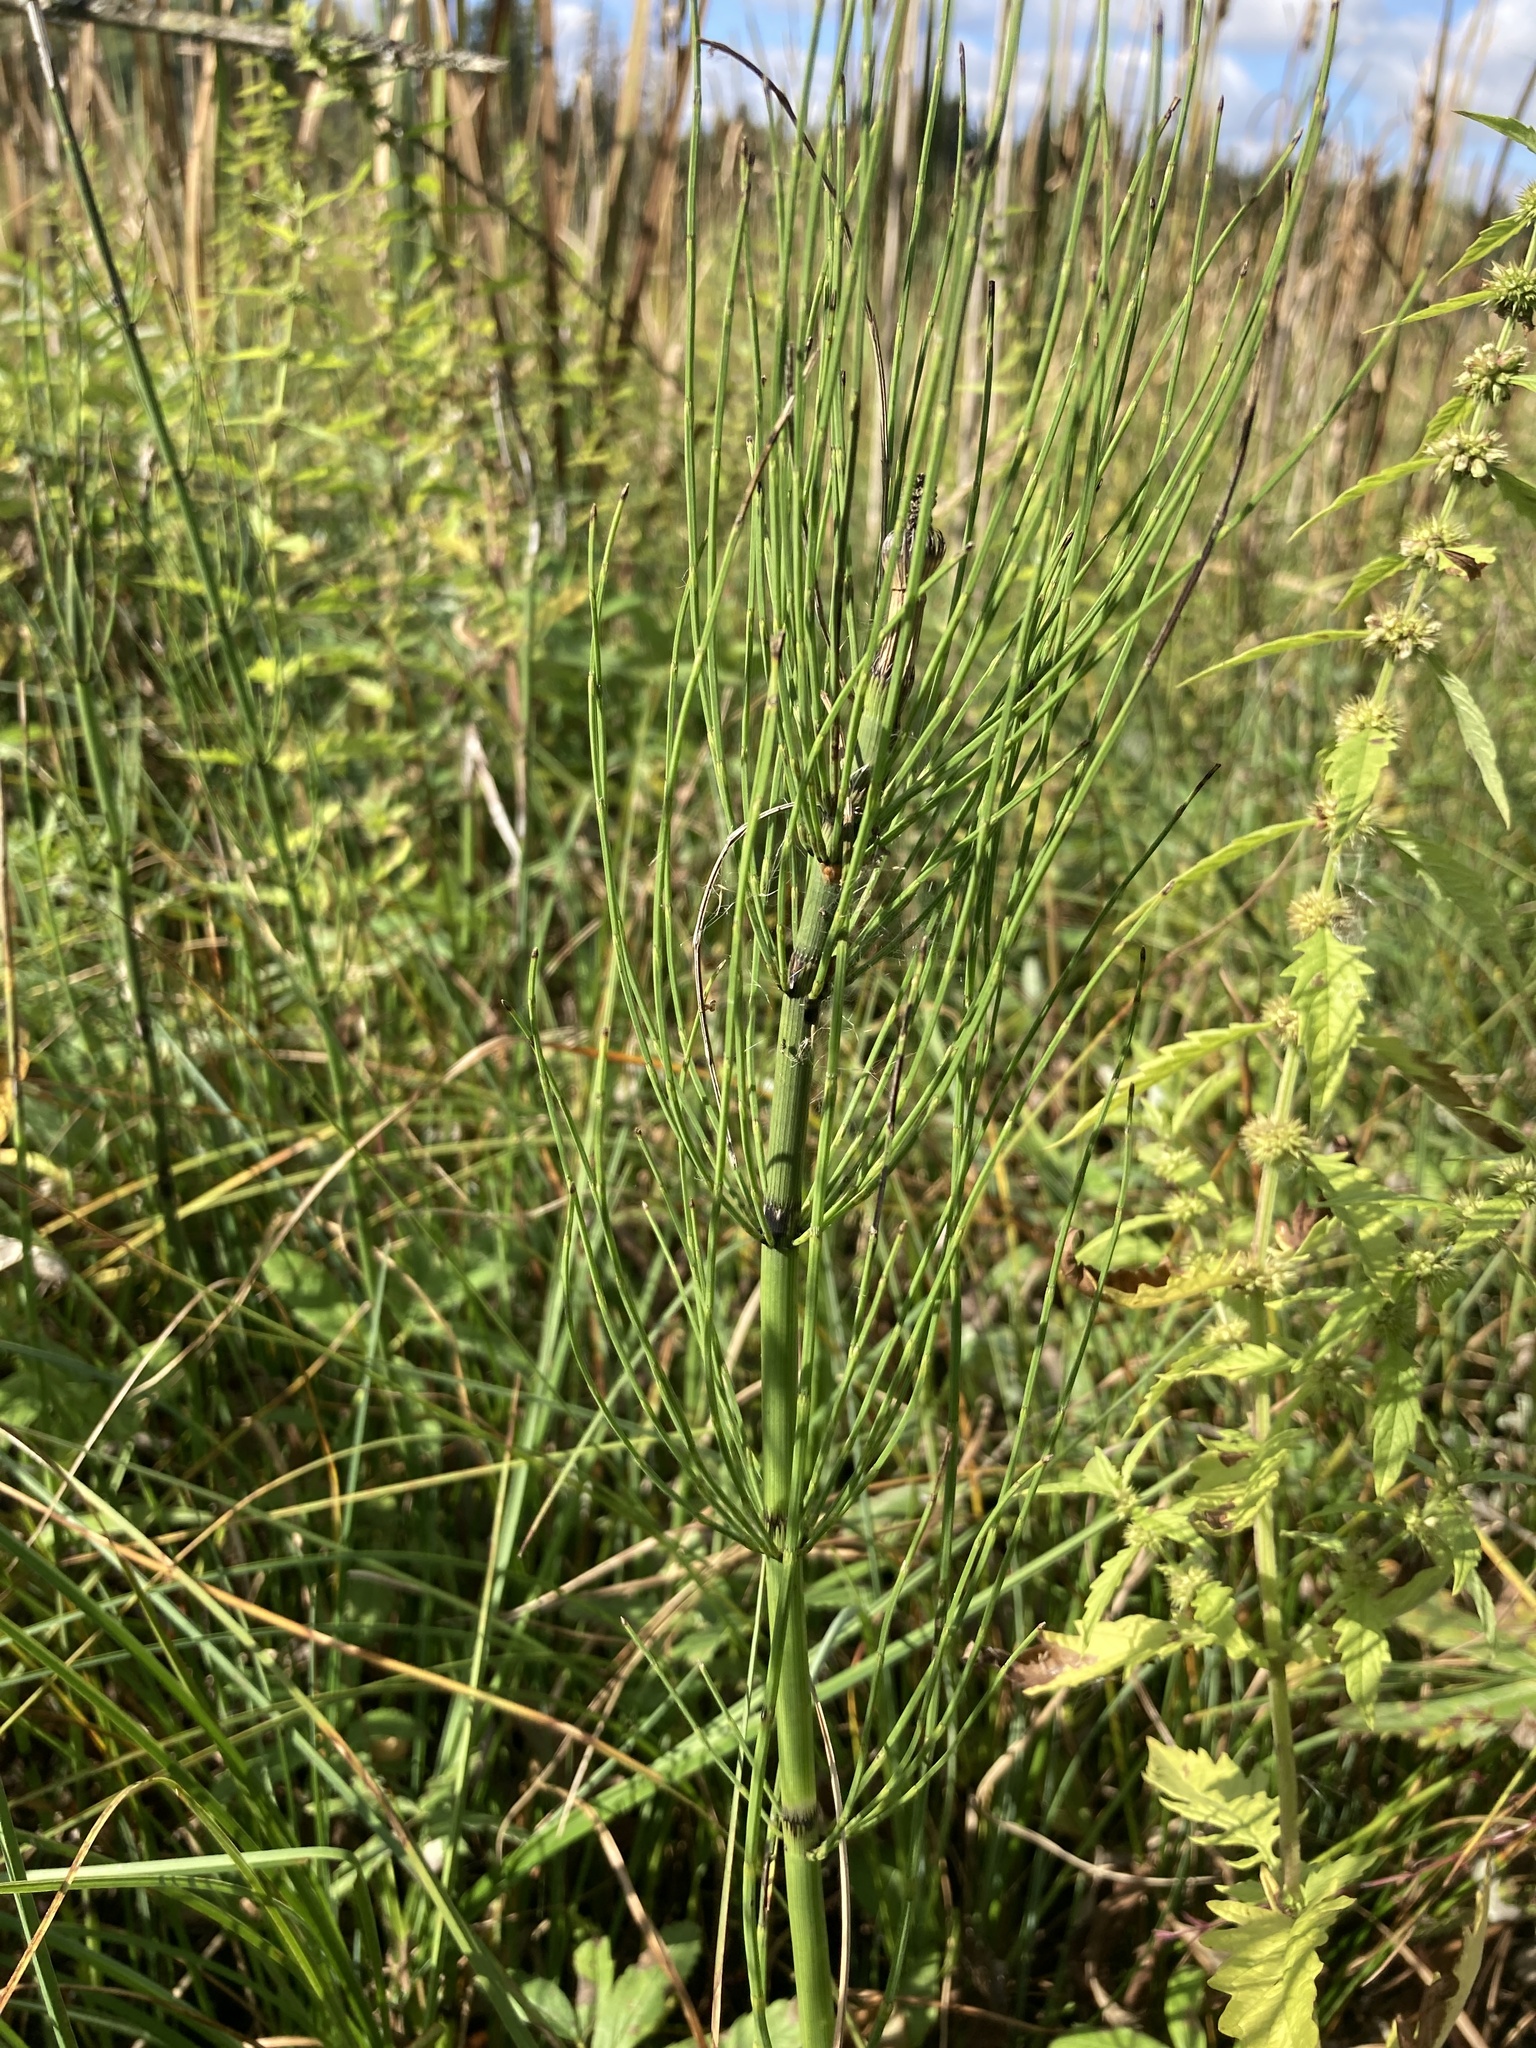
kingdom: Plantae
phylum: Tracheophyta
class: Polypodiopsida
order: Equisetales
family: Equisetaceae
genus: Equisetum
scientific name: Equisetum fluviatile
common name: Water horsetail
